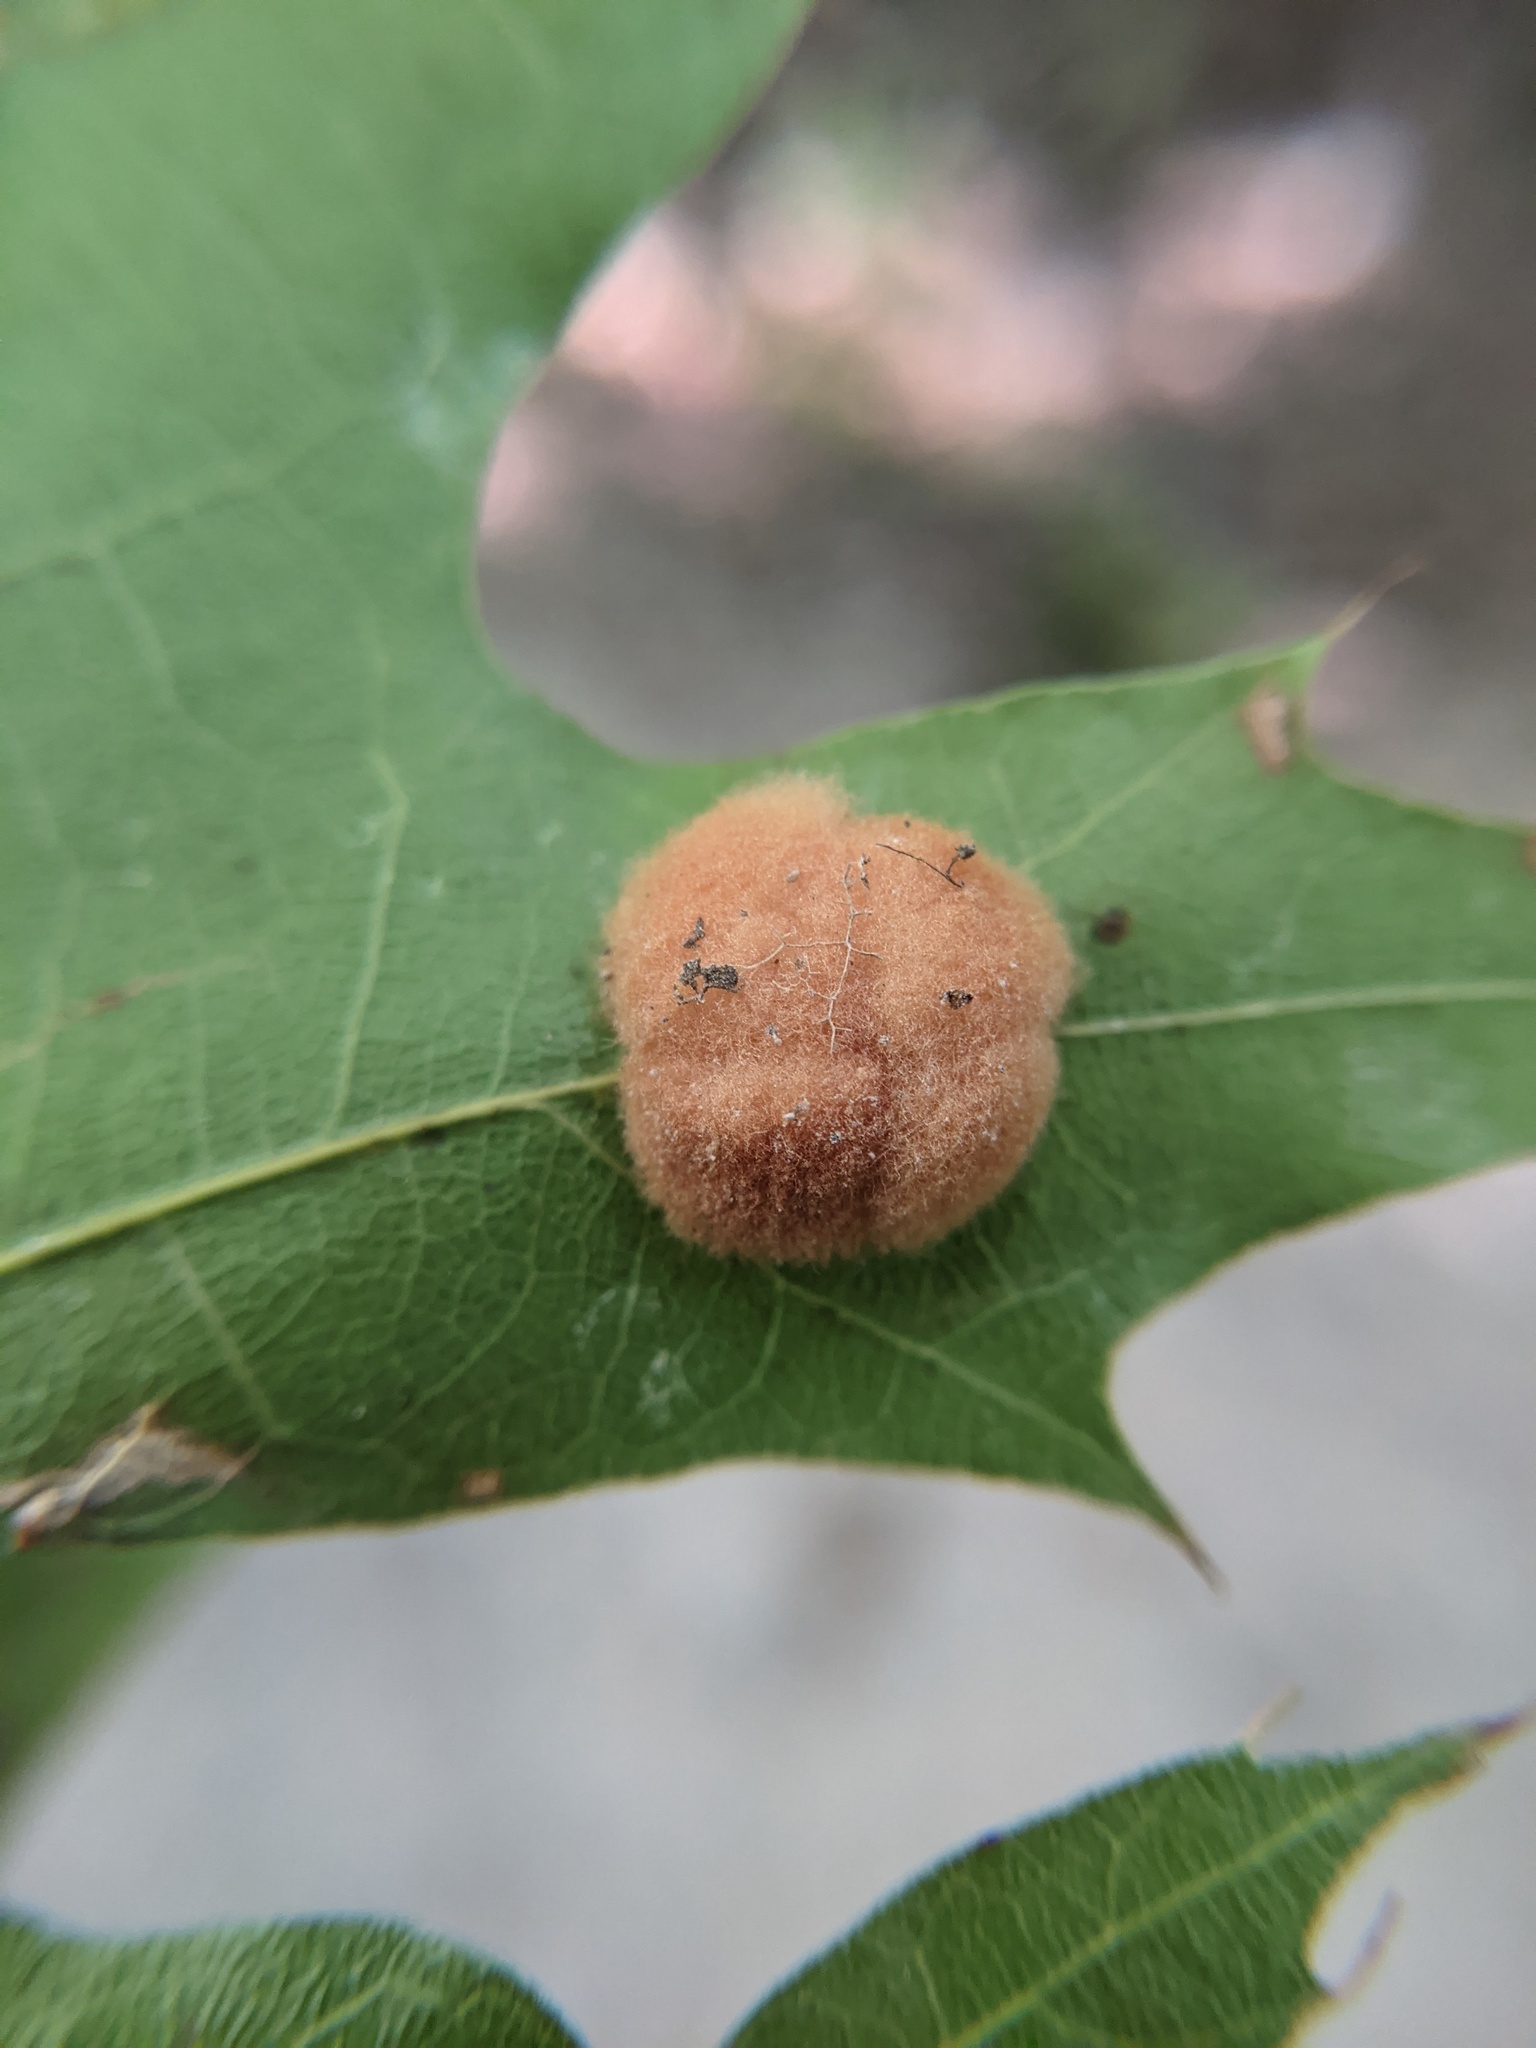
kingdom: Animalia
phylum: Arthropoda
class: Insecta
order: Hymenoptera
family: Cynipidae
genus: Callirhytis
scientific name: Callirhytis
